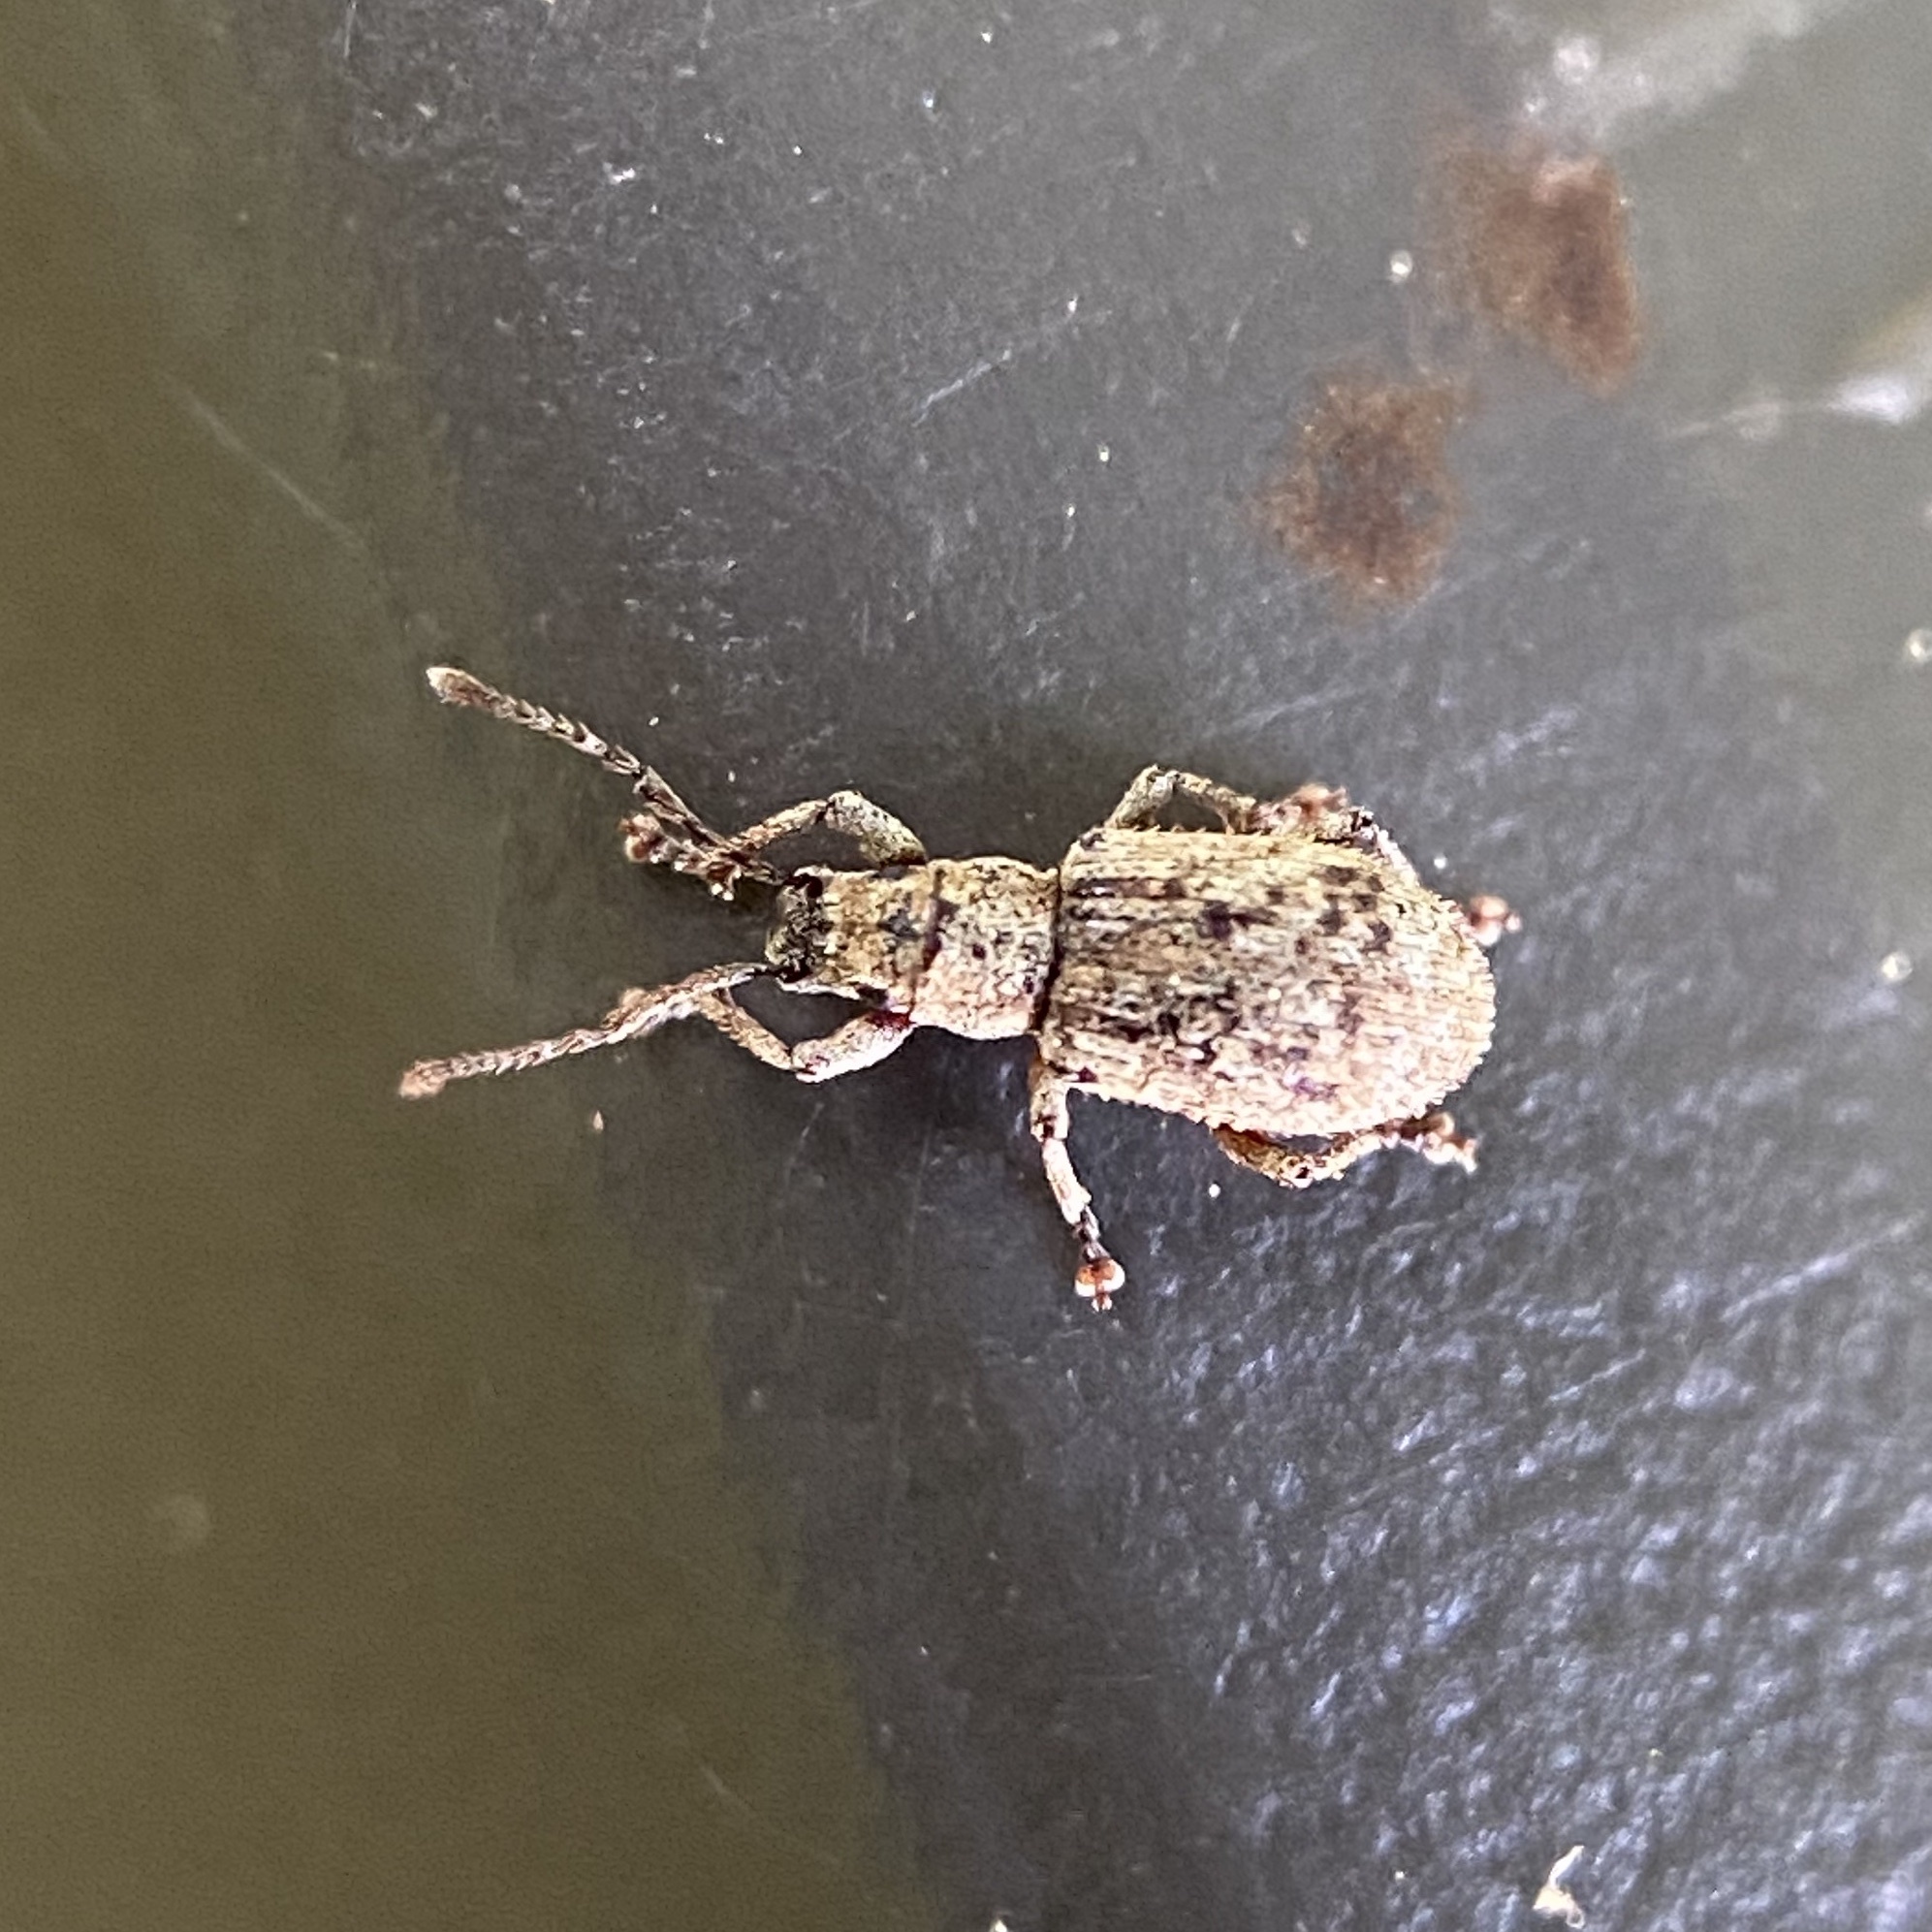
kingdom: Animalia
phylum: Arthropoda
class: Insecta
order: Coleoptera
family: Curculionidae
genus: Pseudoedophrys
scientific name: Pseudoedophrys hilleri
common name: Weevil
